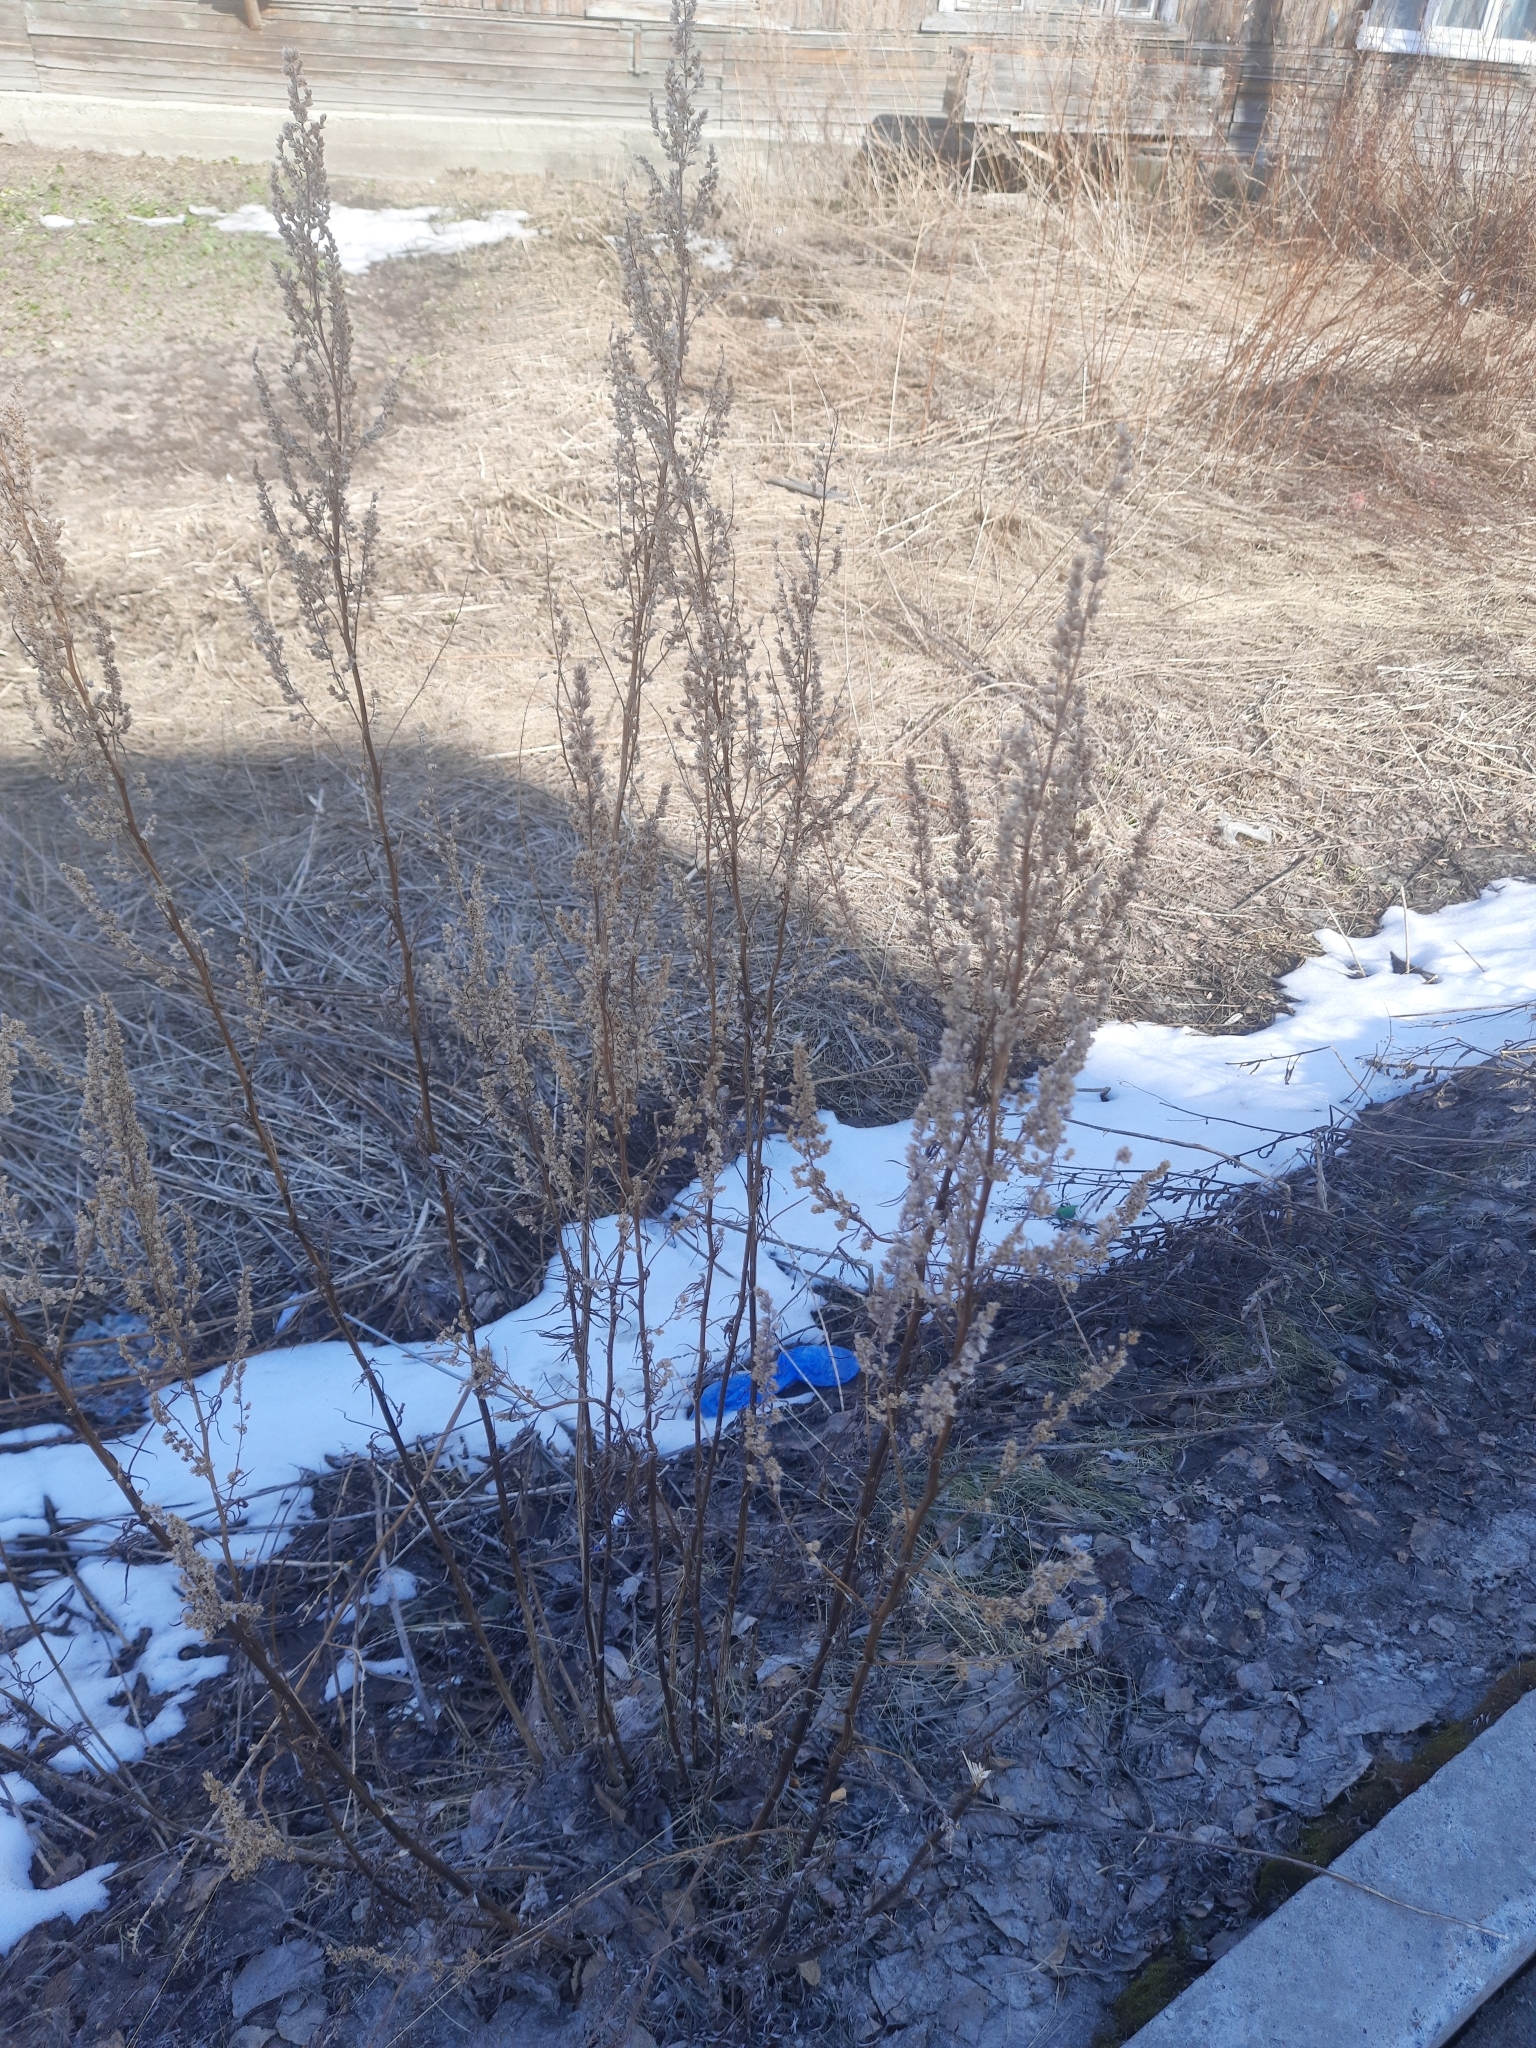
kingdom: Plantae
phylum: Tracheophyta
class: Magnoliopsida
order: Asterales
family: Asteraceae
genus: Artemisia
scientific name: Artemisia vulgaris
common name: Mugwort
